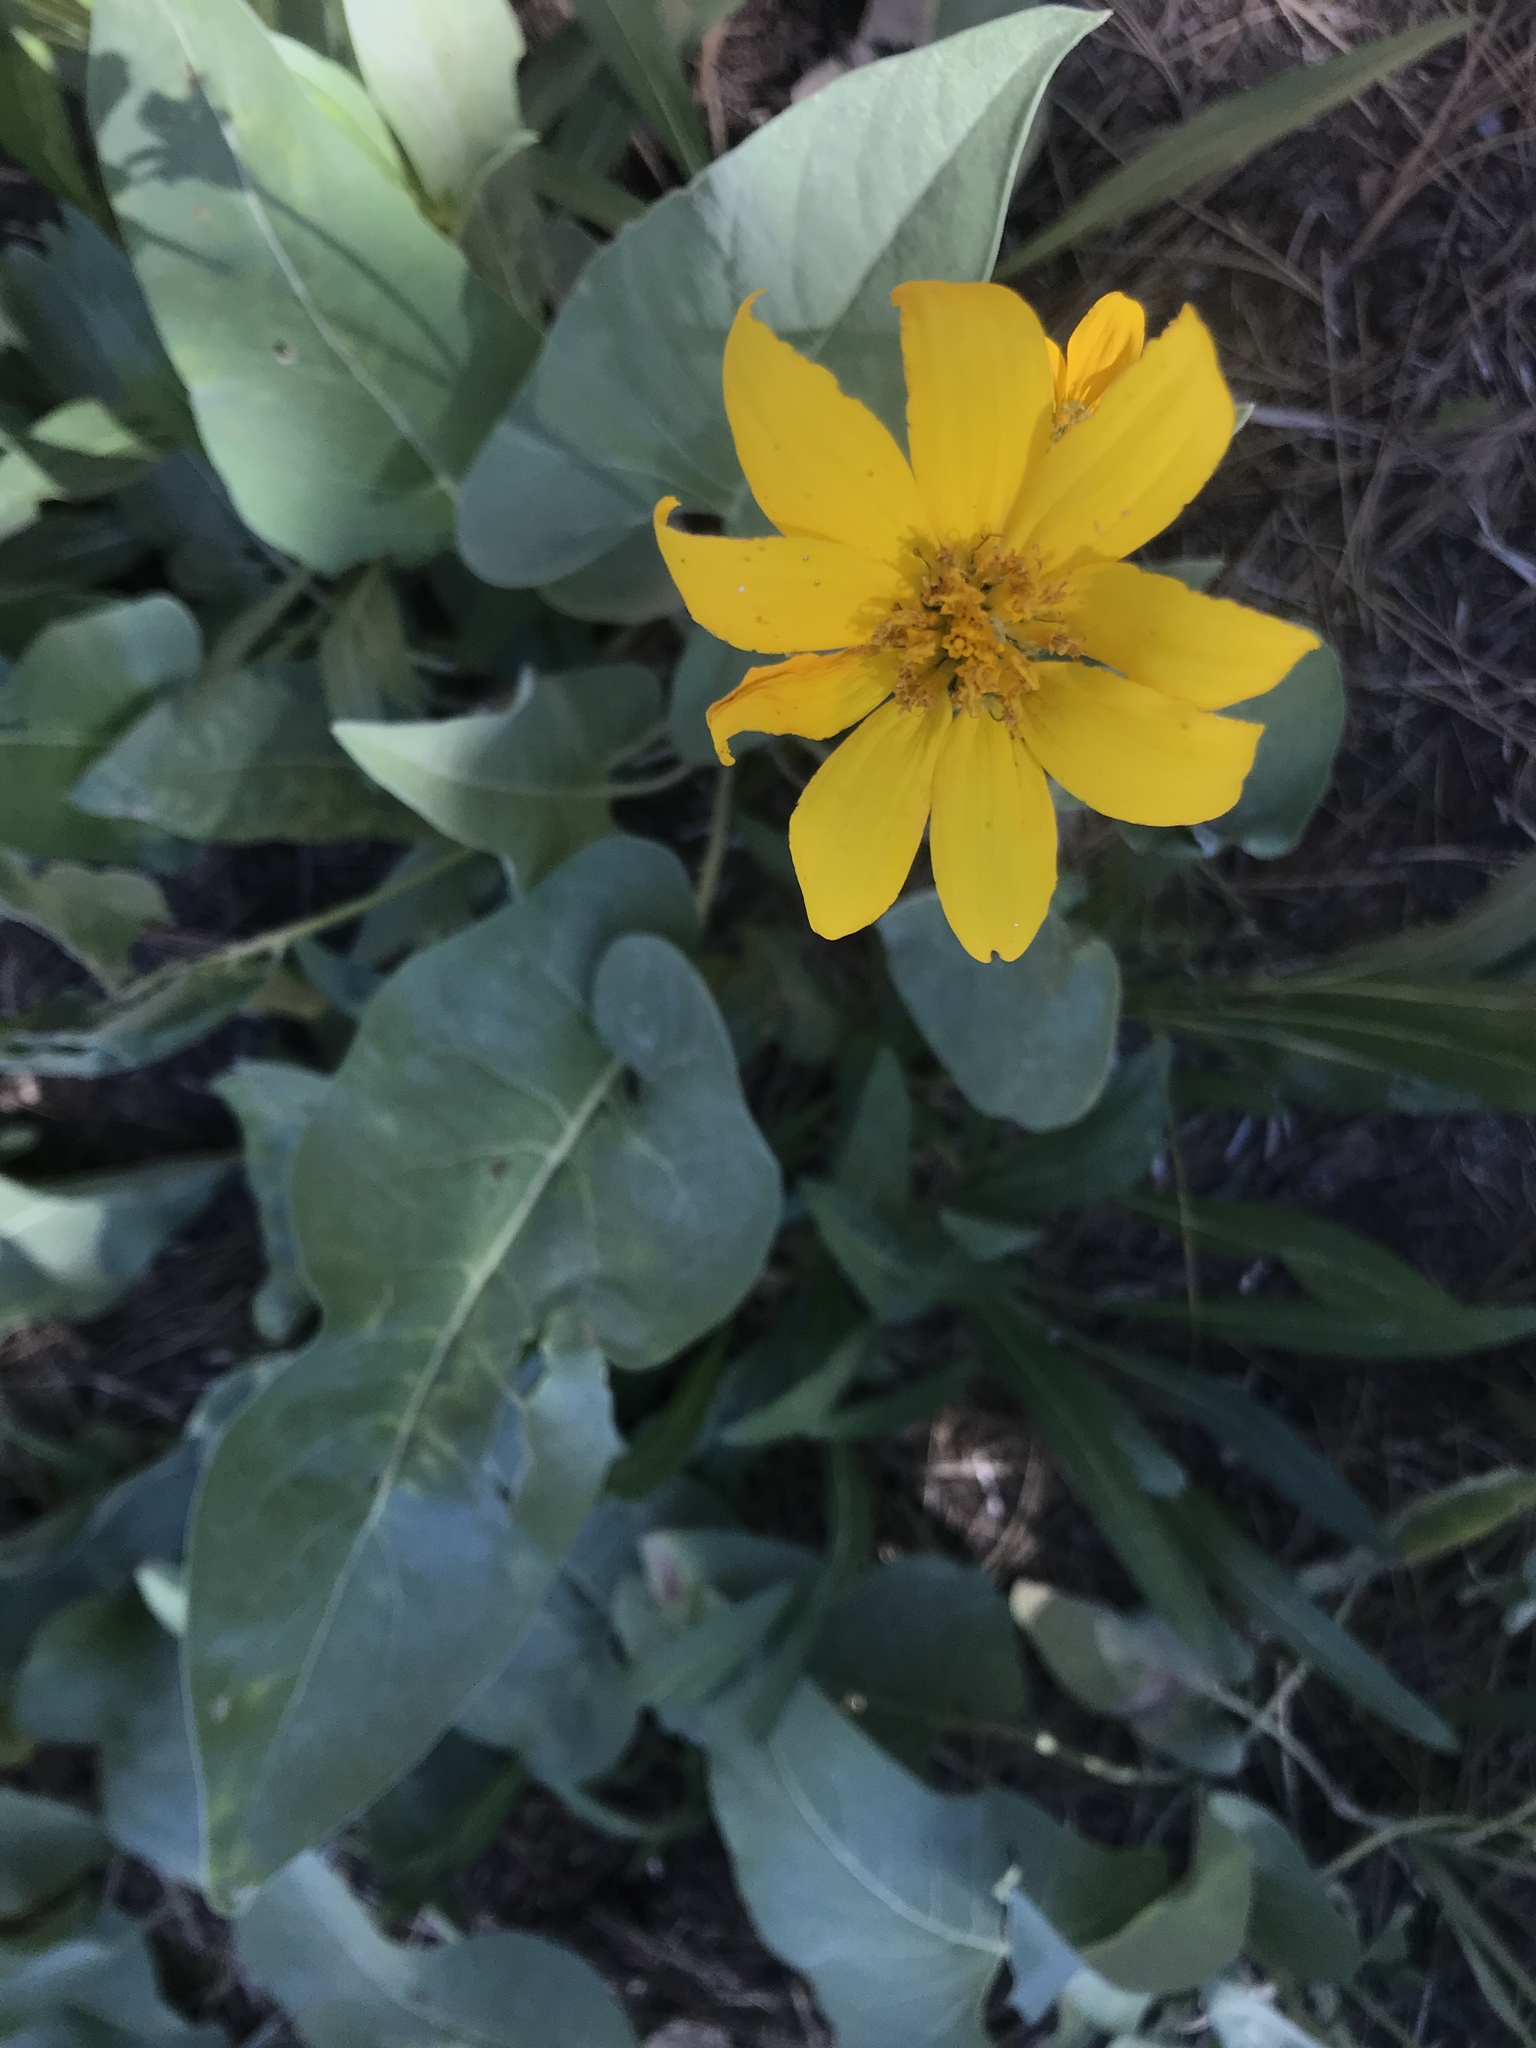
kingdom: Plantae
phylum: Tracheophyta
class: Magnoliopsida
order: Asterales
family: Asteraceae
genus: Wyethia
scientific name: Wyethia sagittata
